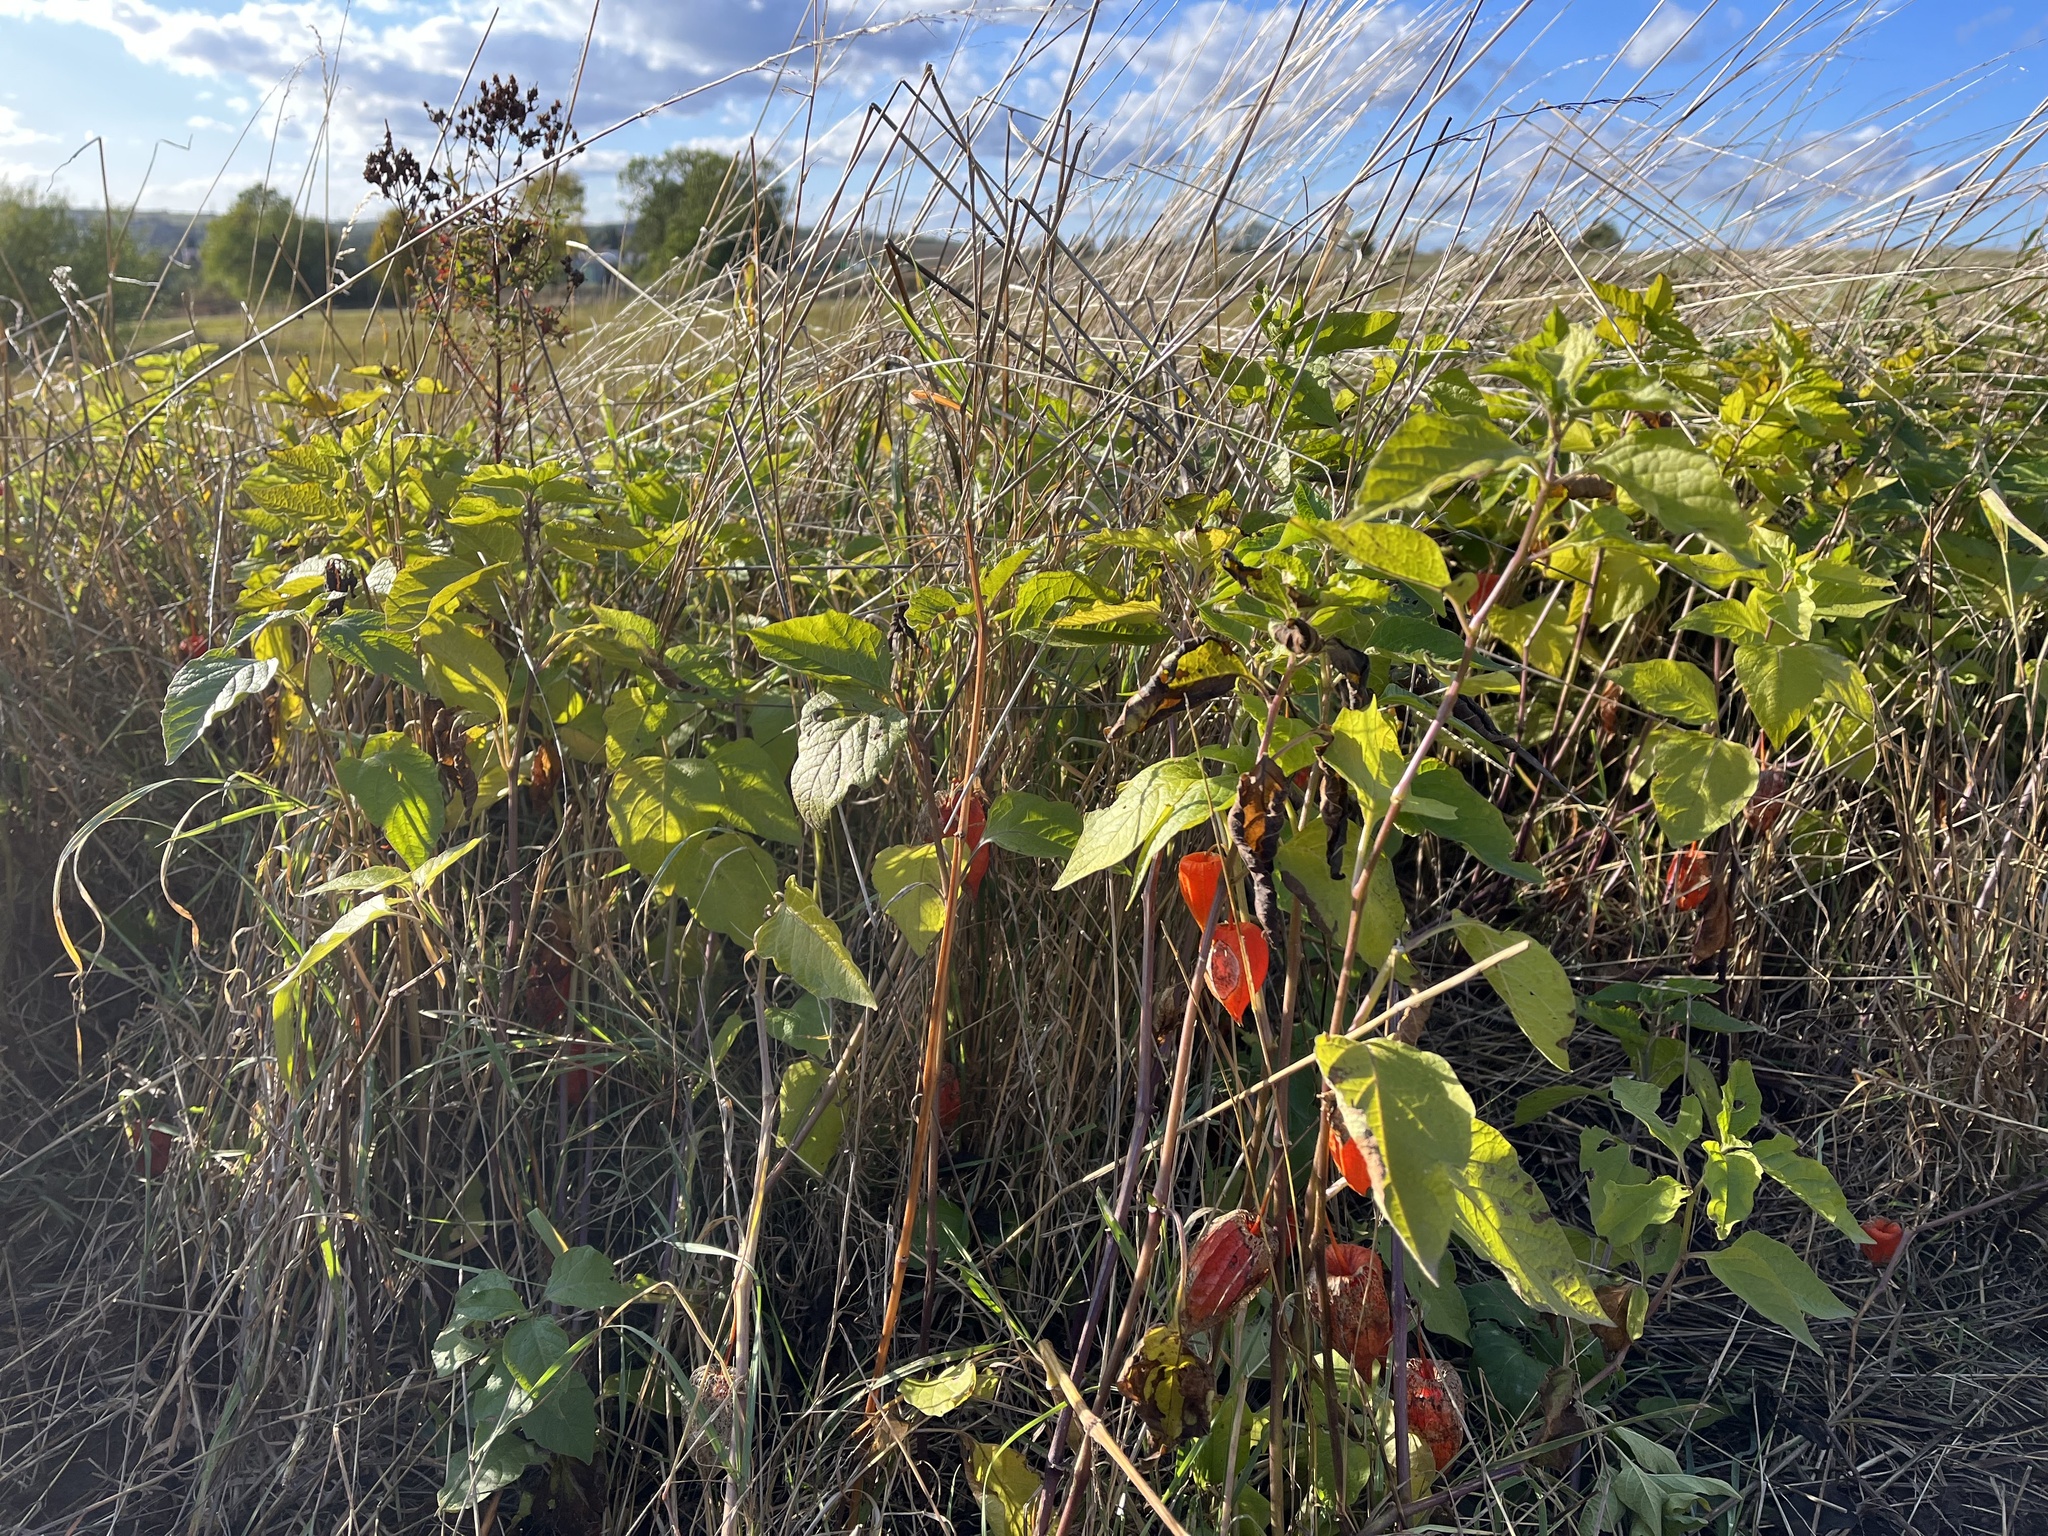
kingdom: Plantae
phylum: Tracheophyta
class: Magnoliopsida
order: Solanales
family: Solanaceae
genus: Alkekengi
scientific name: Alkekengi officinarum
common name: Japanese-lantern
